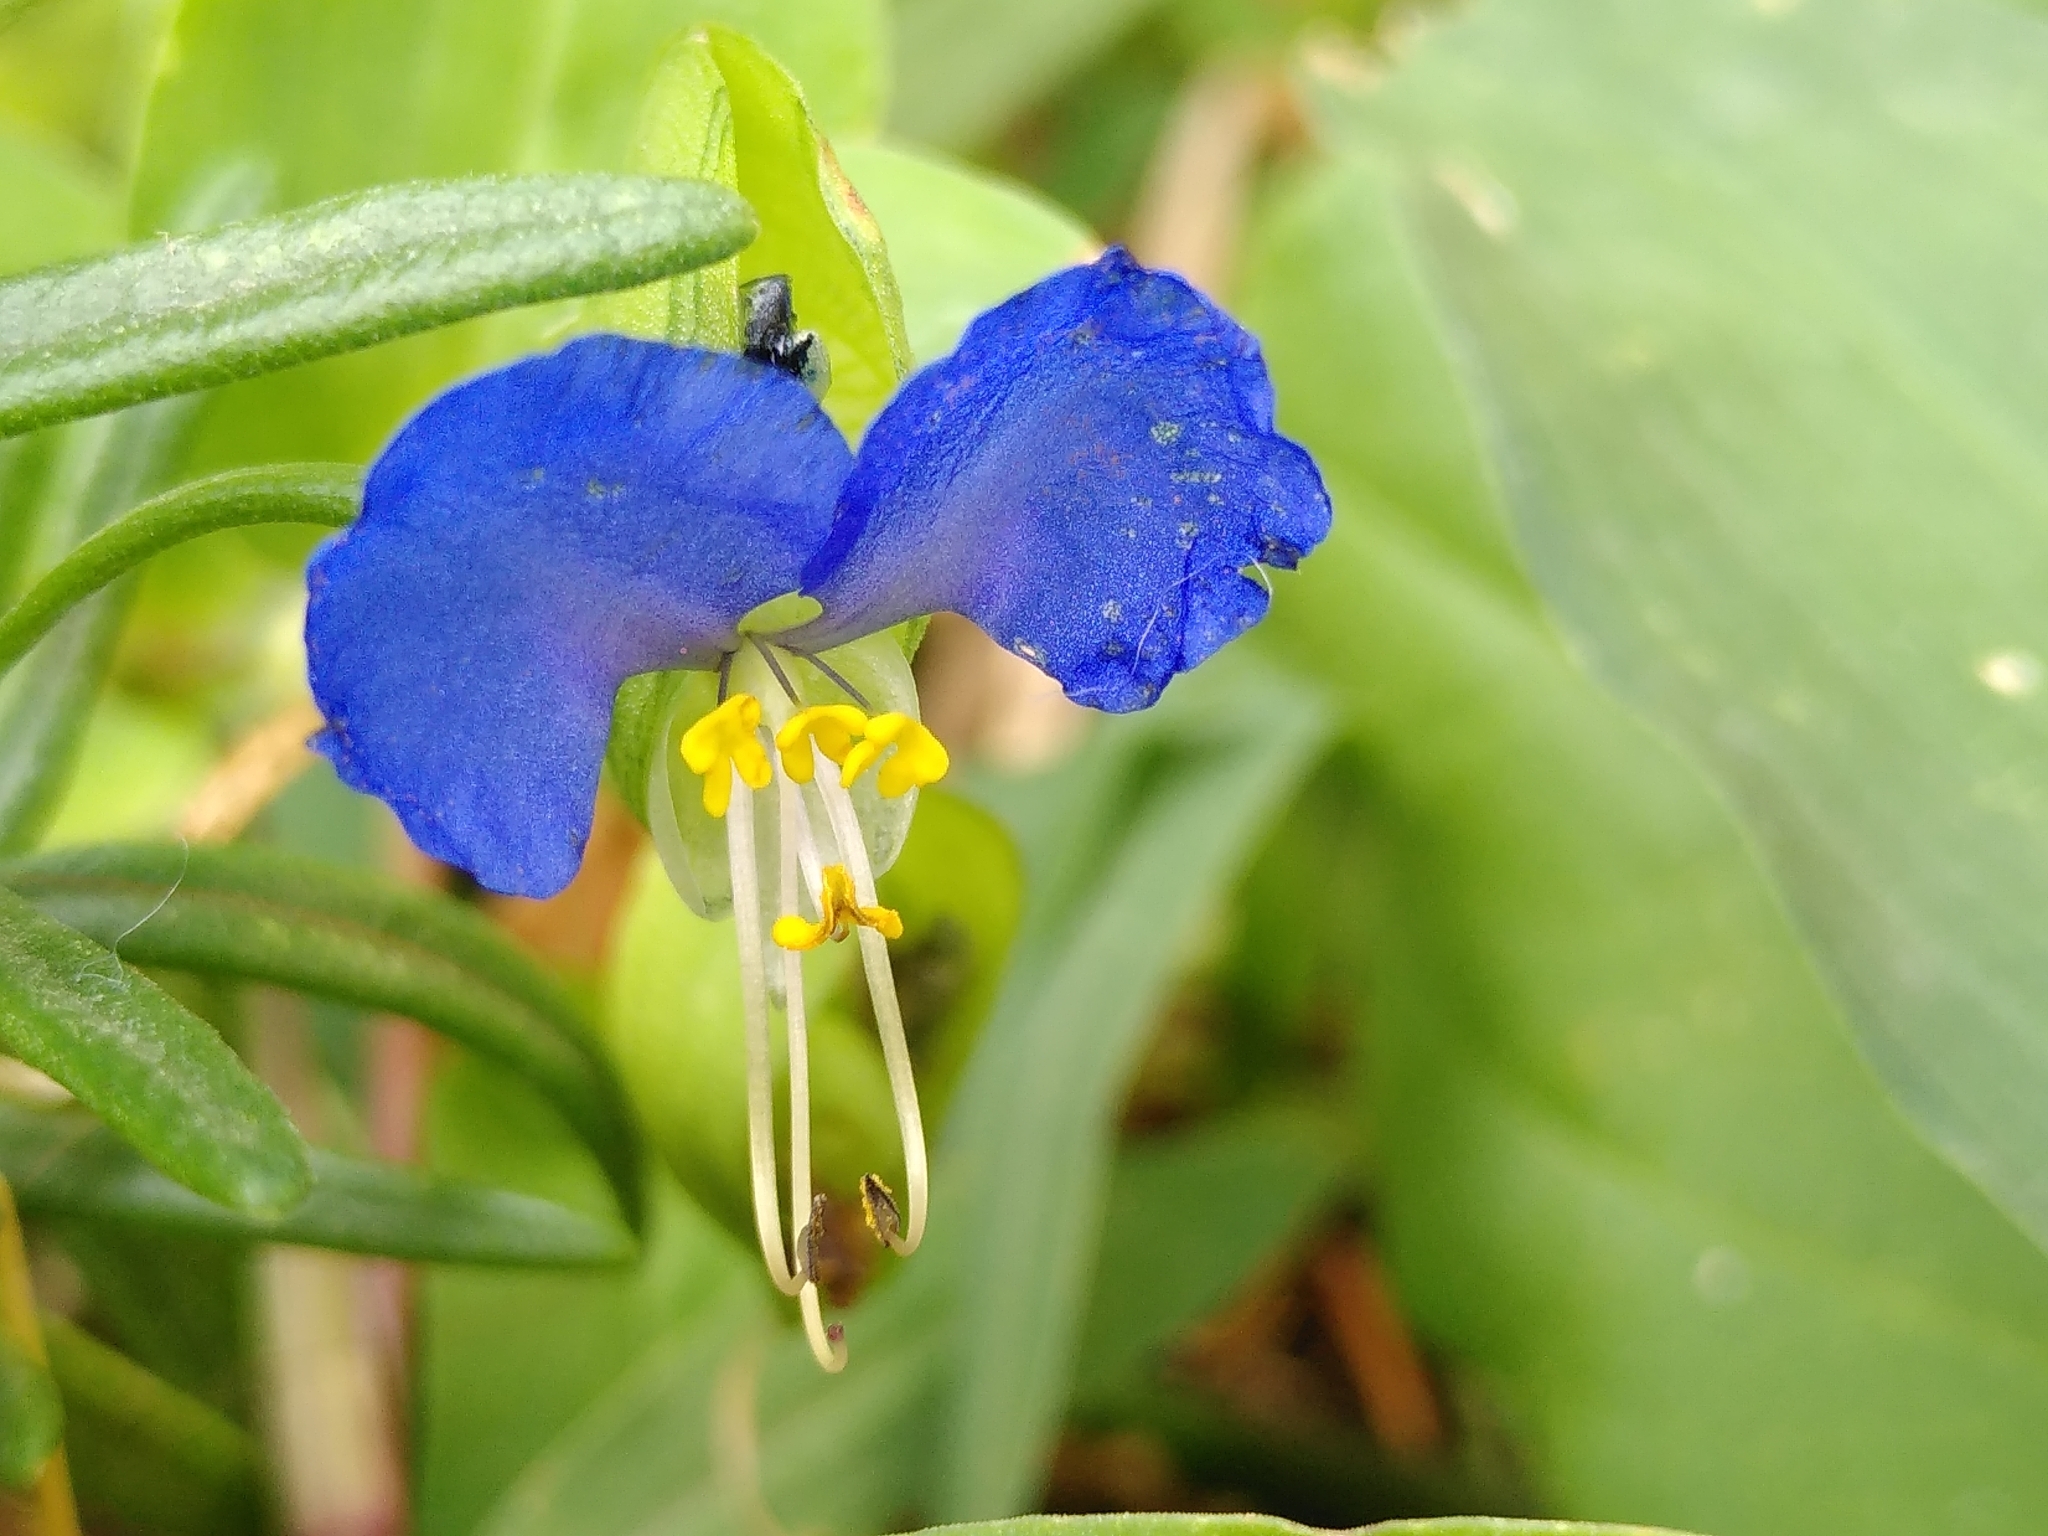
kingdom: Plantae
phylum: Tracheophyta
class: Liliopsida
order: Commelinales
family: Commelinaceae
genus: Commelina
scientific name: Commelina communis
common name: Asiatic dayflower
